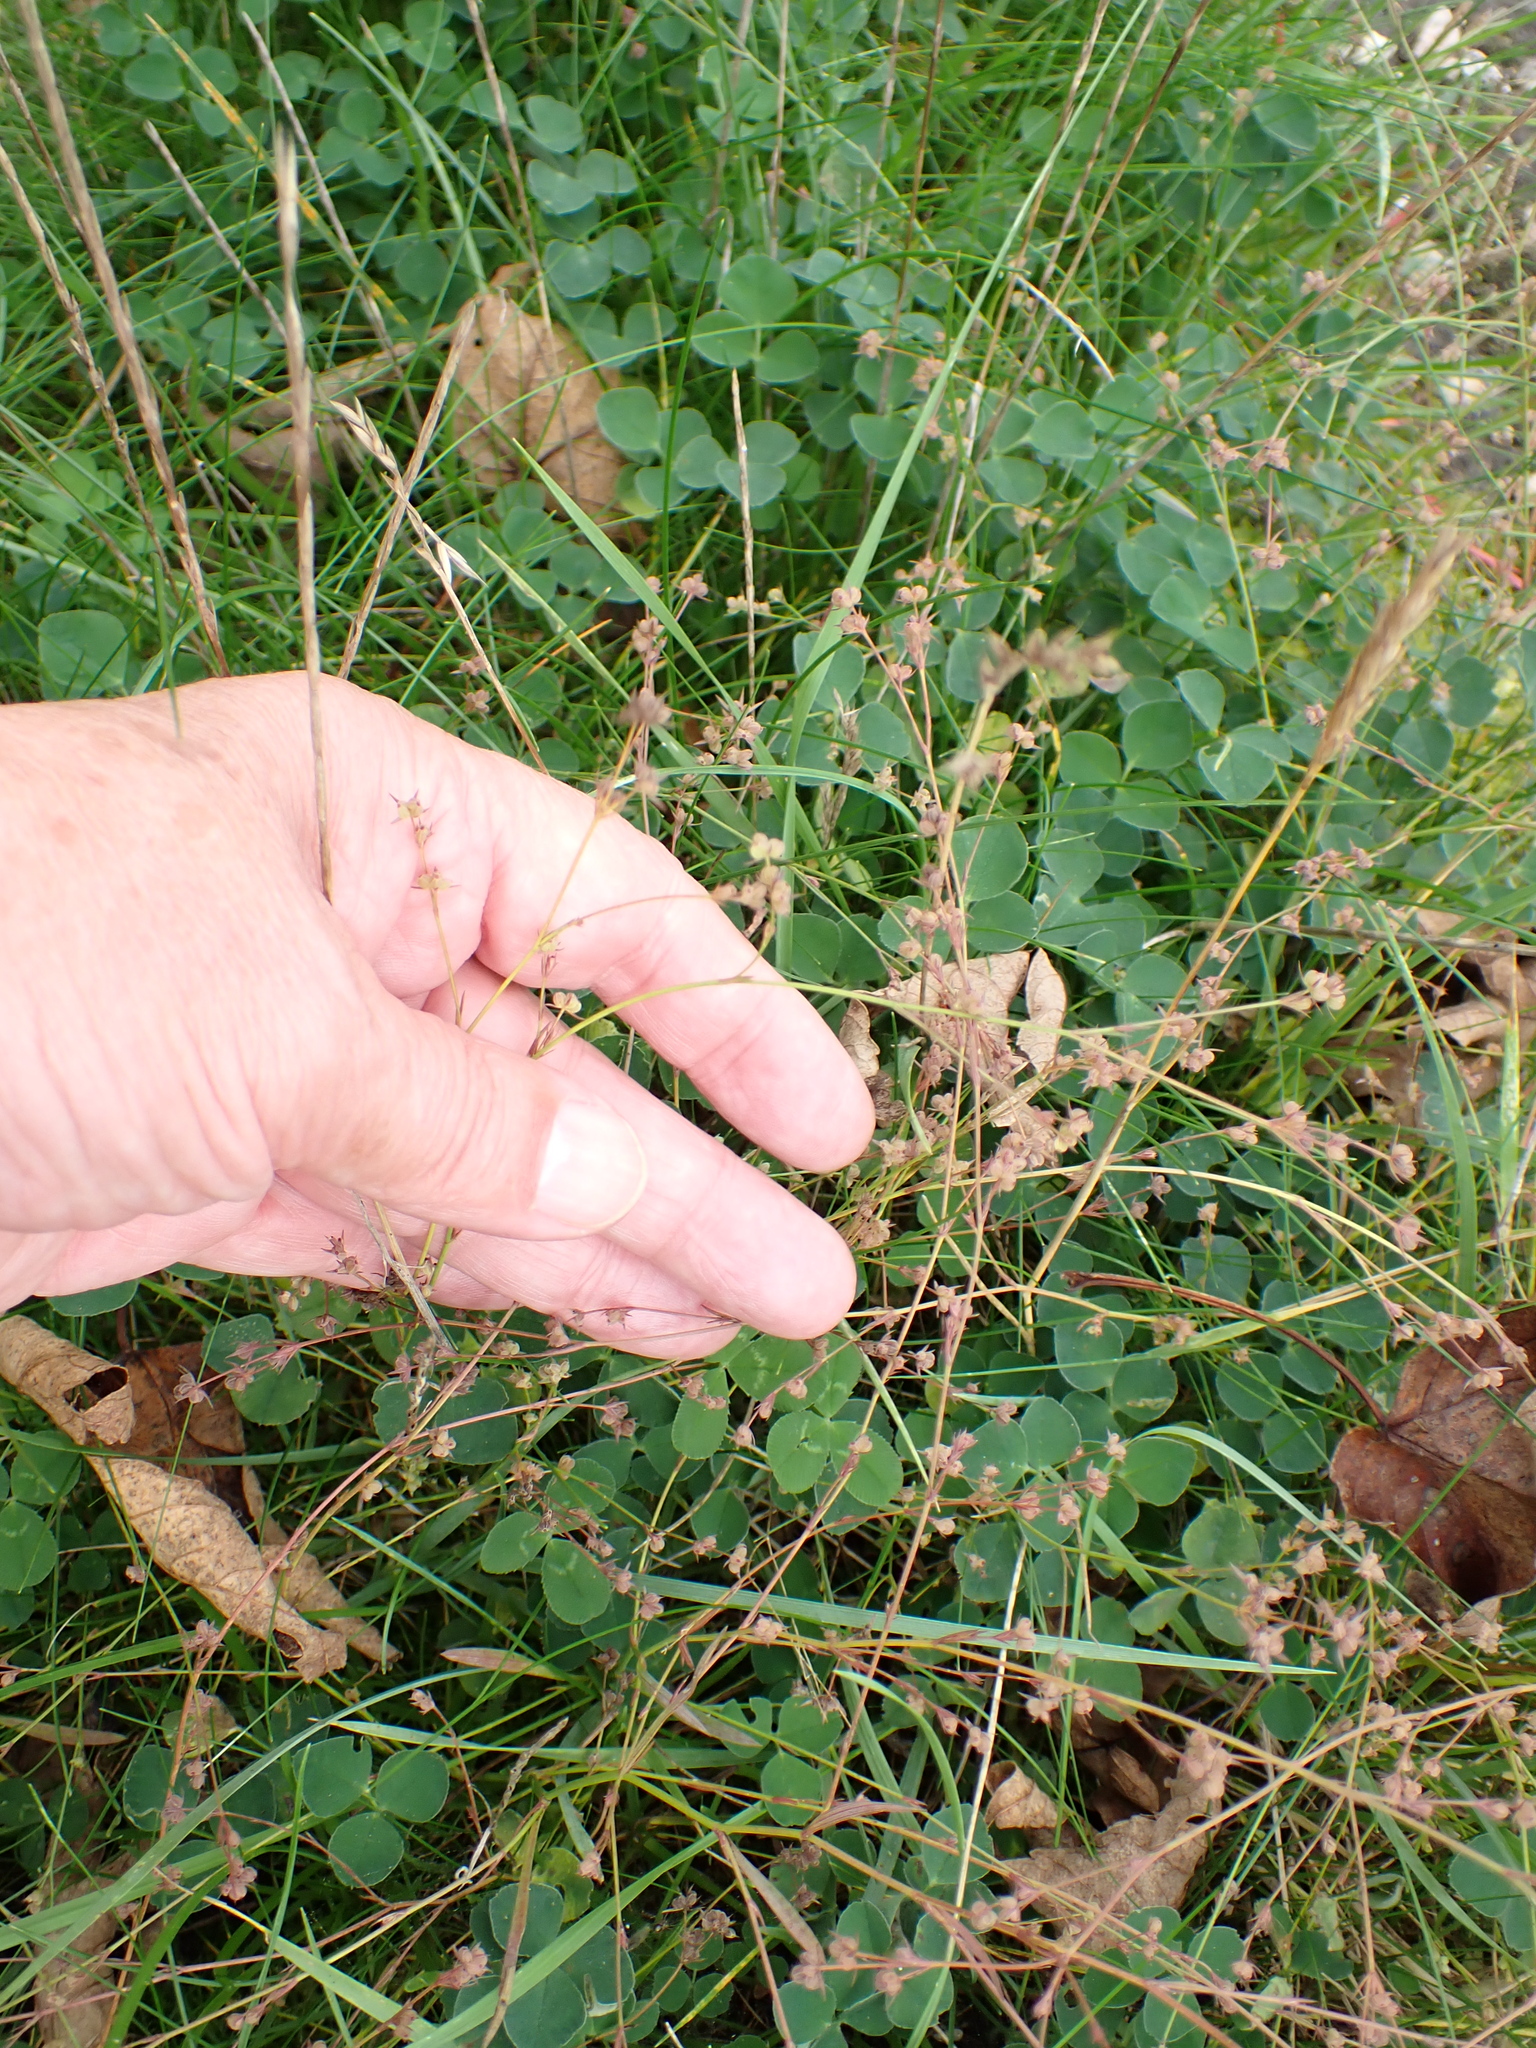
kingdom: Plantae
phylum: Tracheophyta
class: Magnoliopsida
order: Apiales
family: Apiaceae
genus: Bupleurum
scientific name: Bupleurum tenuissimum
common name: Slender hare's-ear
